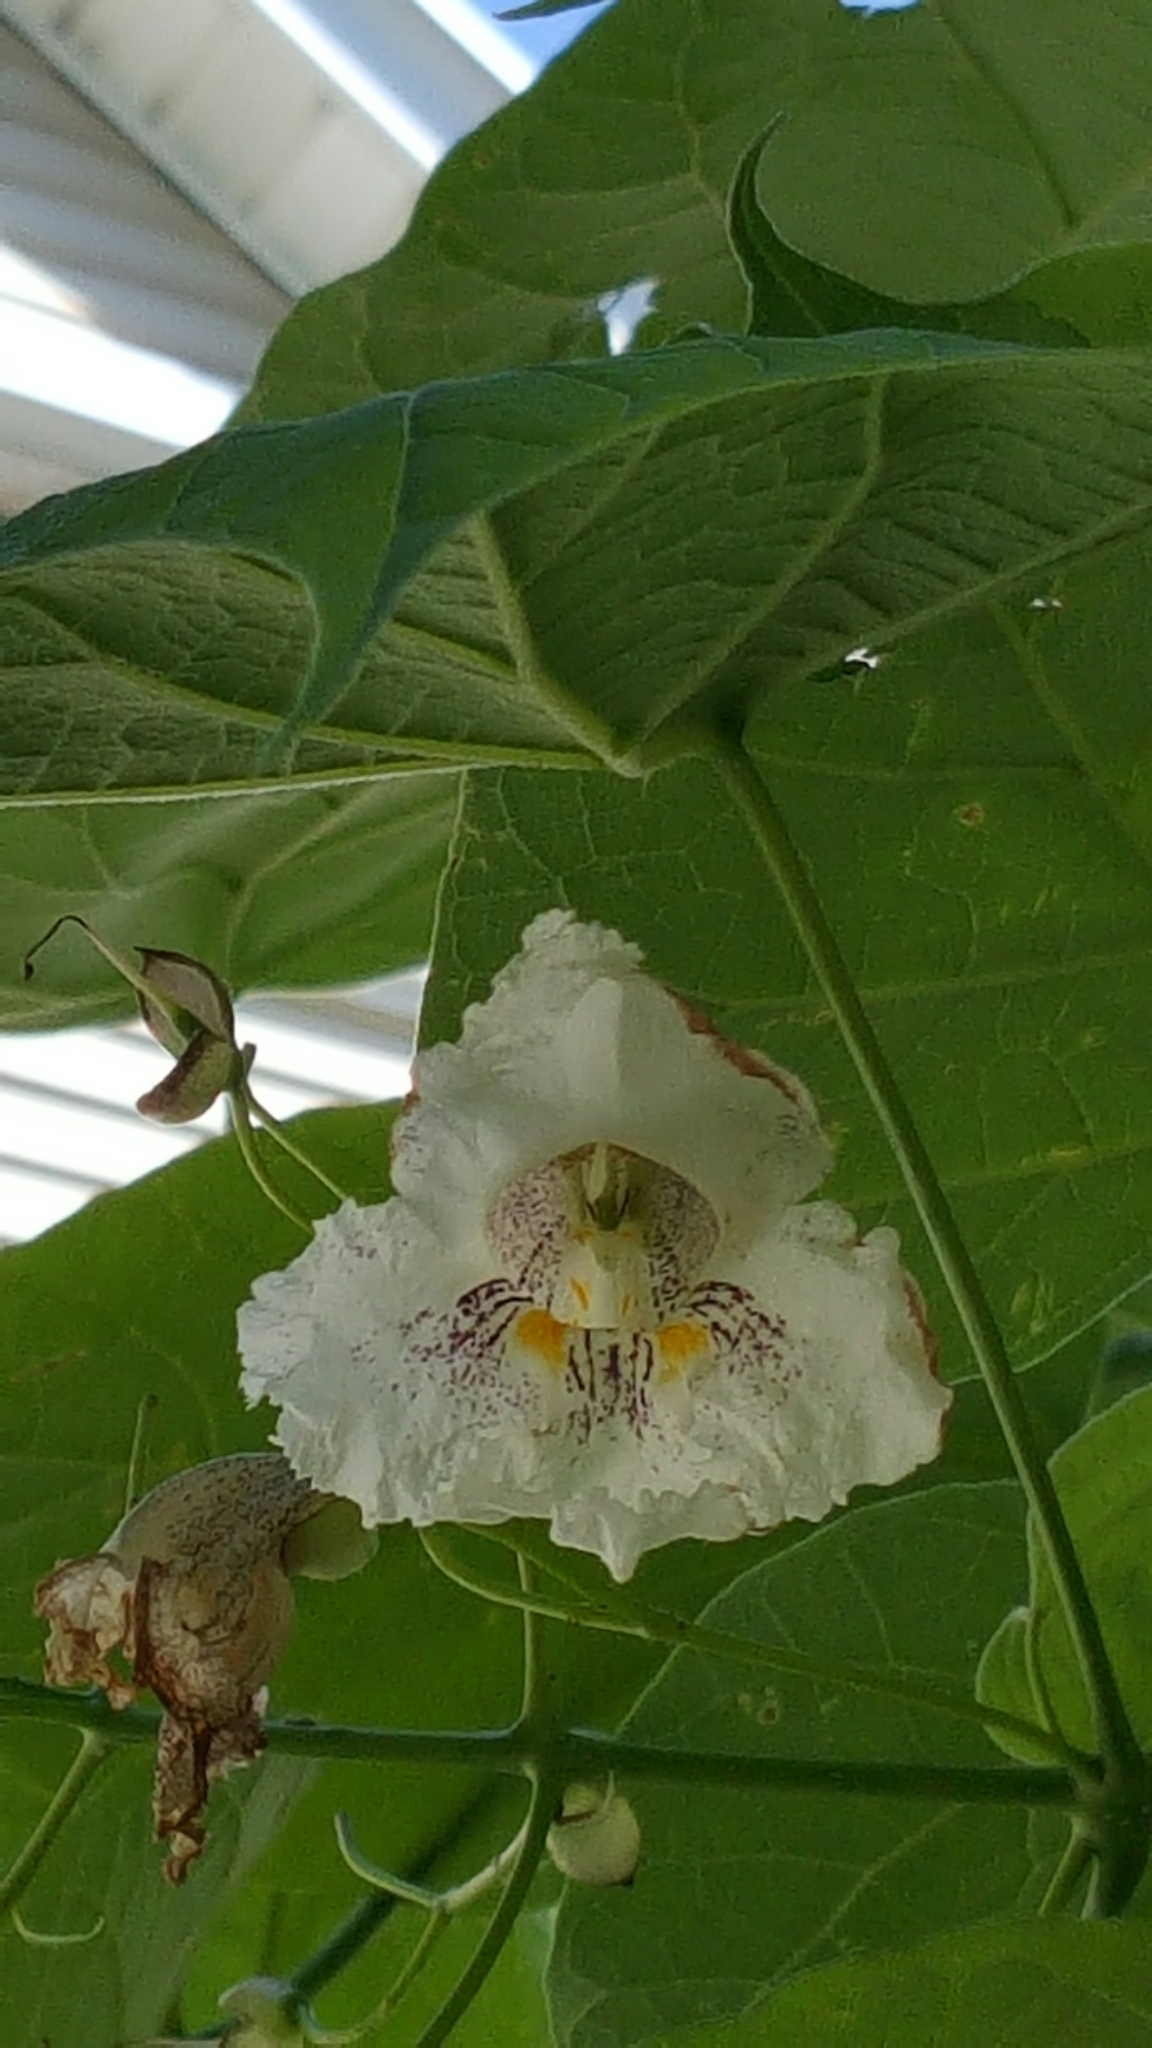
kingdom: Plantae
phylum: Tracheophyta
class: Magnoliopsida
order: Lamiales
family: Bignoniaceae
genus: Catalpa
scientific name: Catalpa speciosa
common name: Northern catalpa
